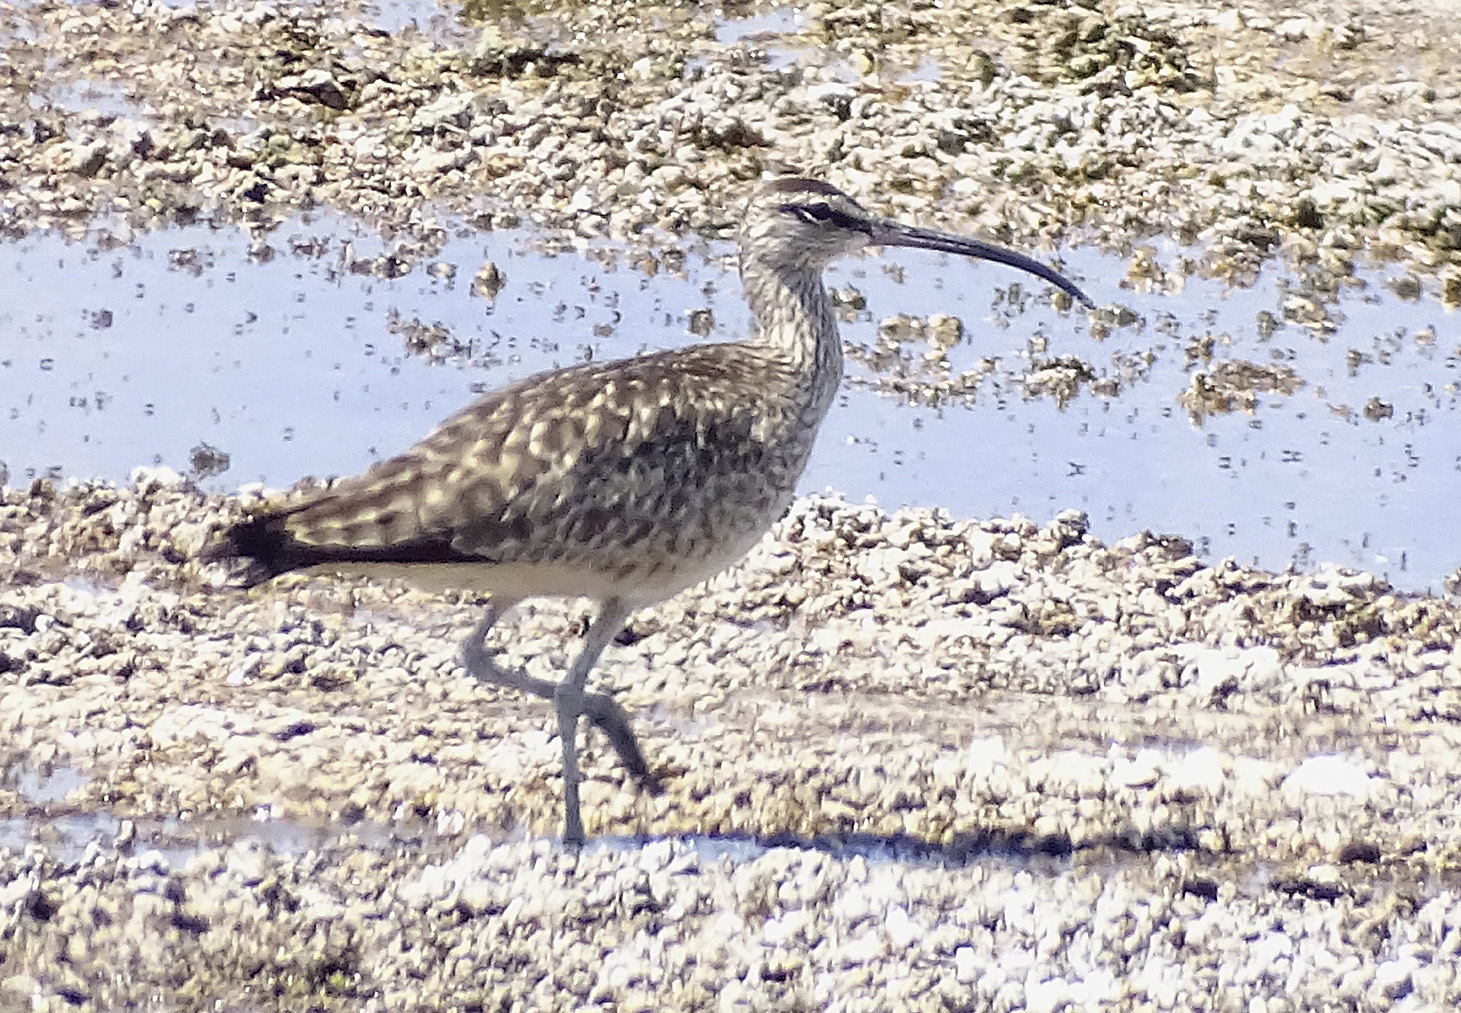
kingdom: Animalia
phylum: Chordata
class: Aves
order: Charadriiformes
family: Scolopacidae
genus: Numenius
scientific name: Numenius phaeopus
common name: Whimbrel
